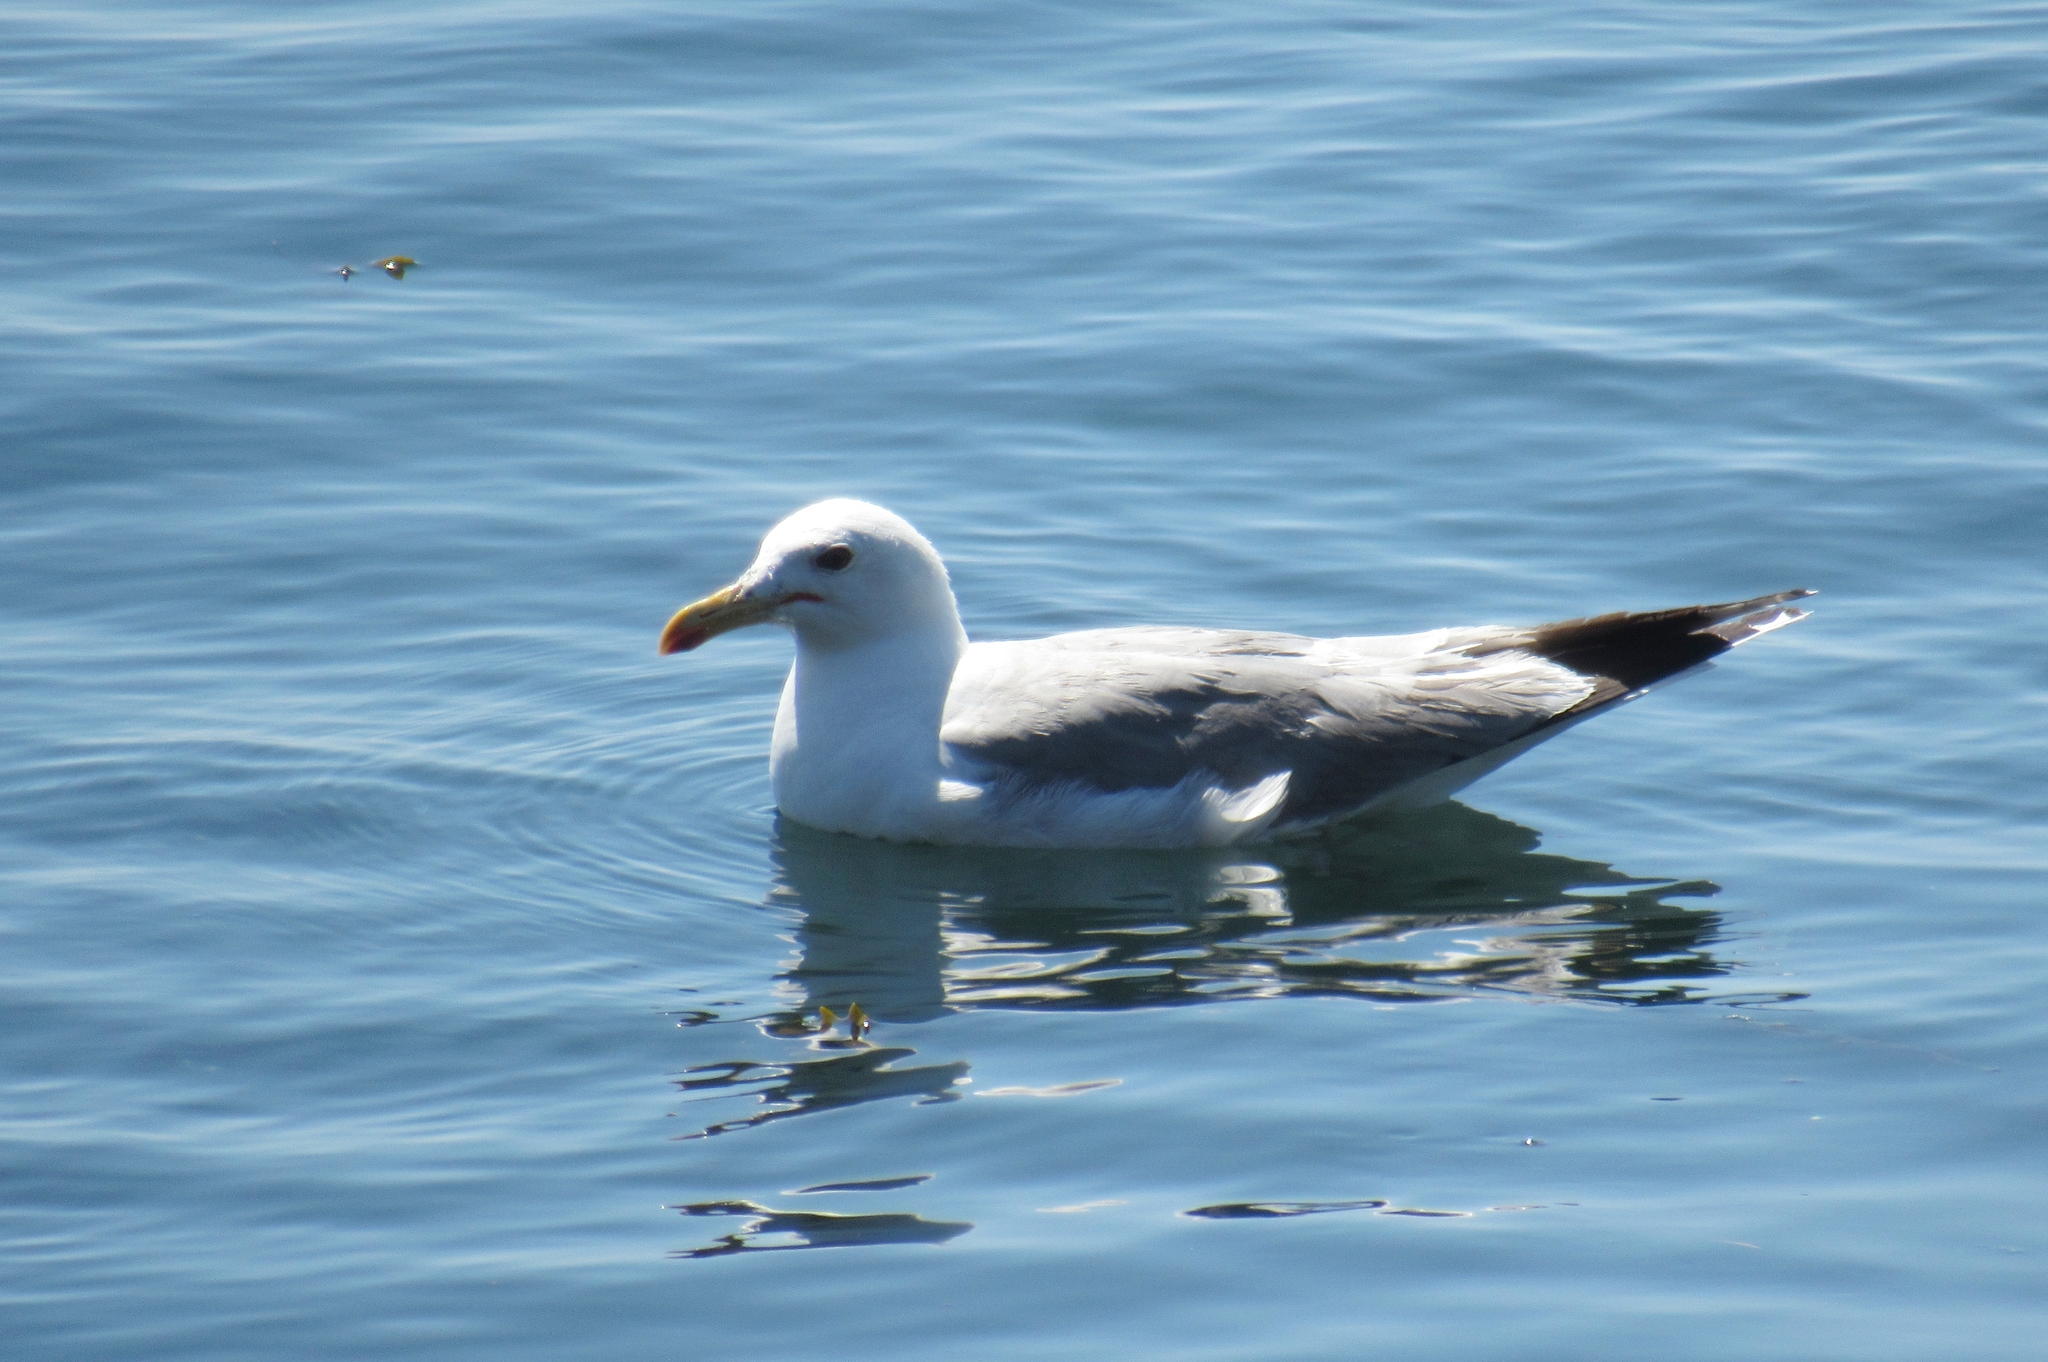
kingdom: Animalia
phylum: Chordata
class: Aves
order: Charadriiformes
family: Laridae
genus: Larus
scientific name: Larus californicus
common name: California gull
